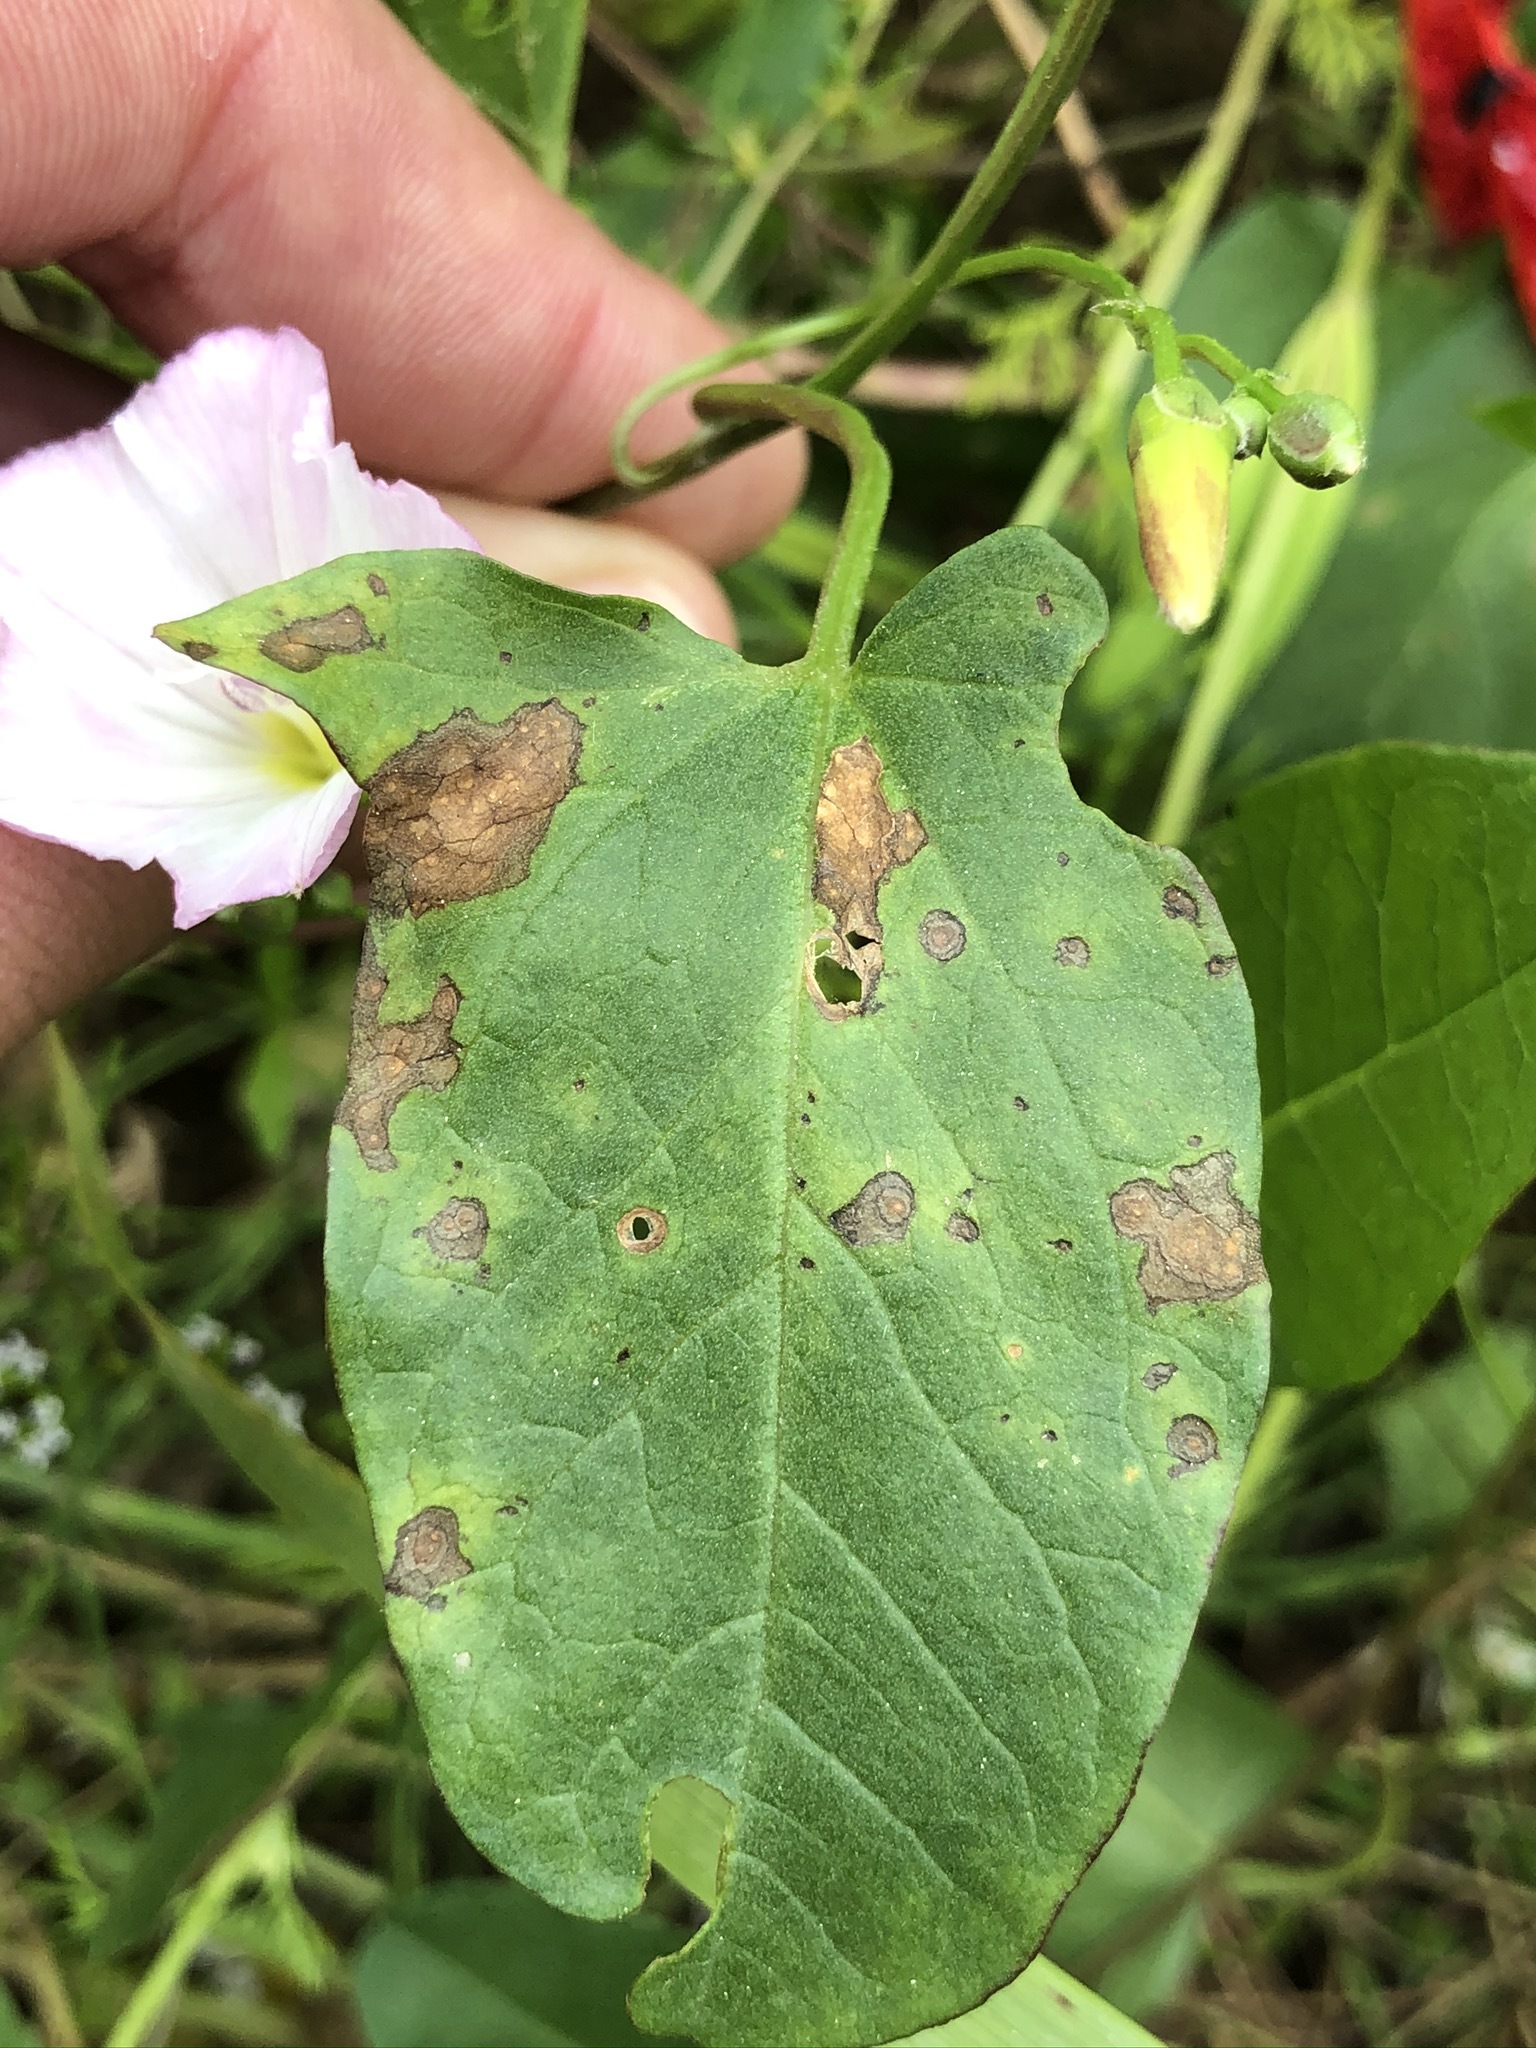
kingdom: Plantae
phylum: Tracheophyta
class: Magnoliopsida
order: Solanales
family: Convolvulaceae
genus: Convolvulus
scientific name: Convolvulus arvensis
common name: Field bindweed
